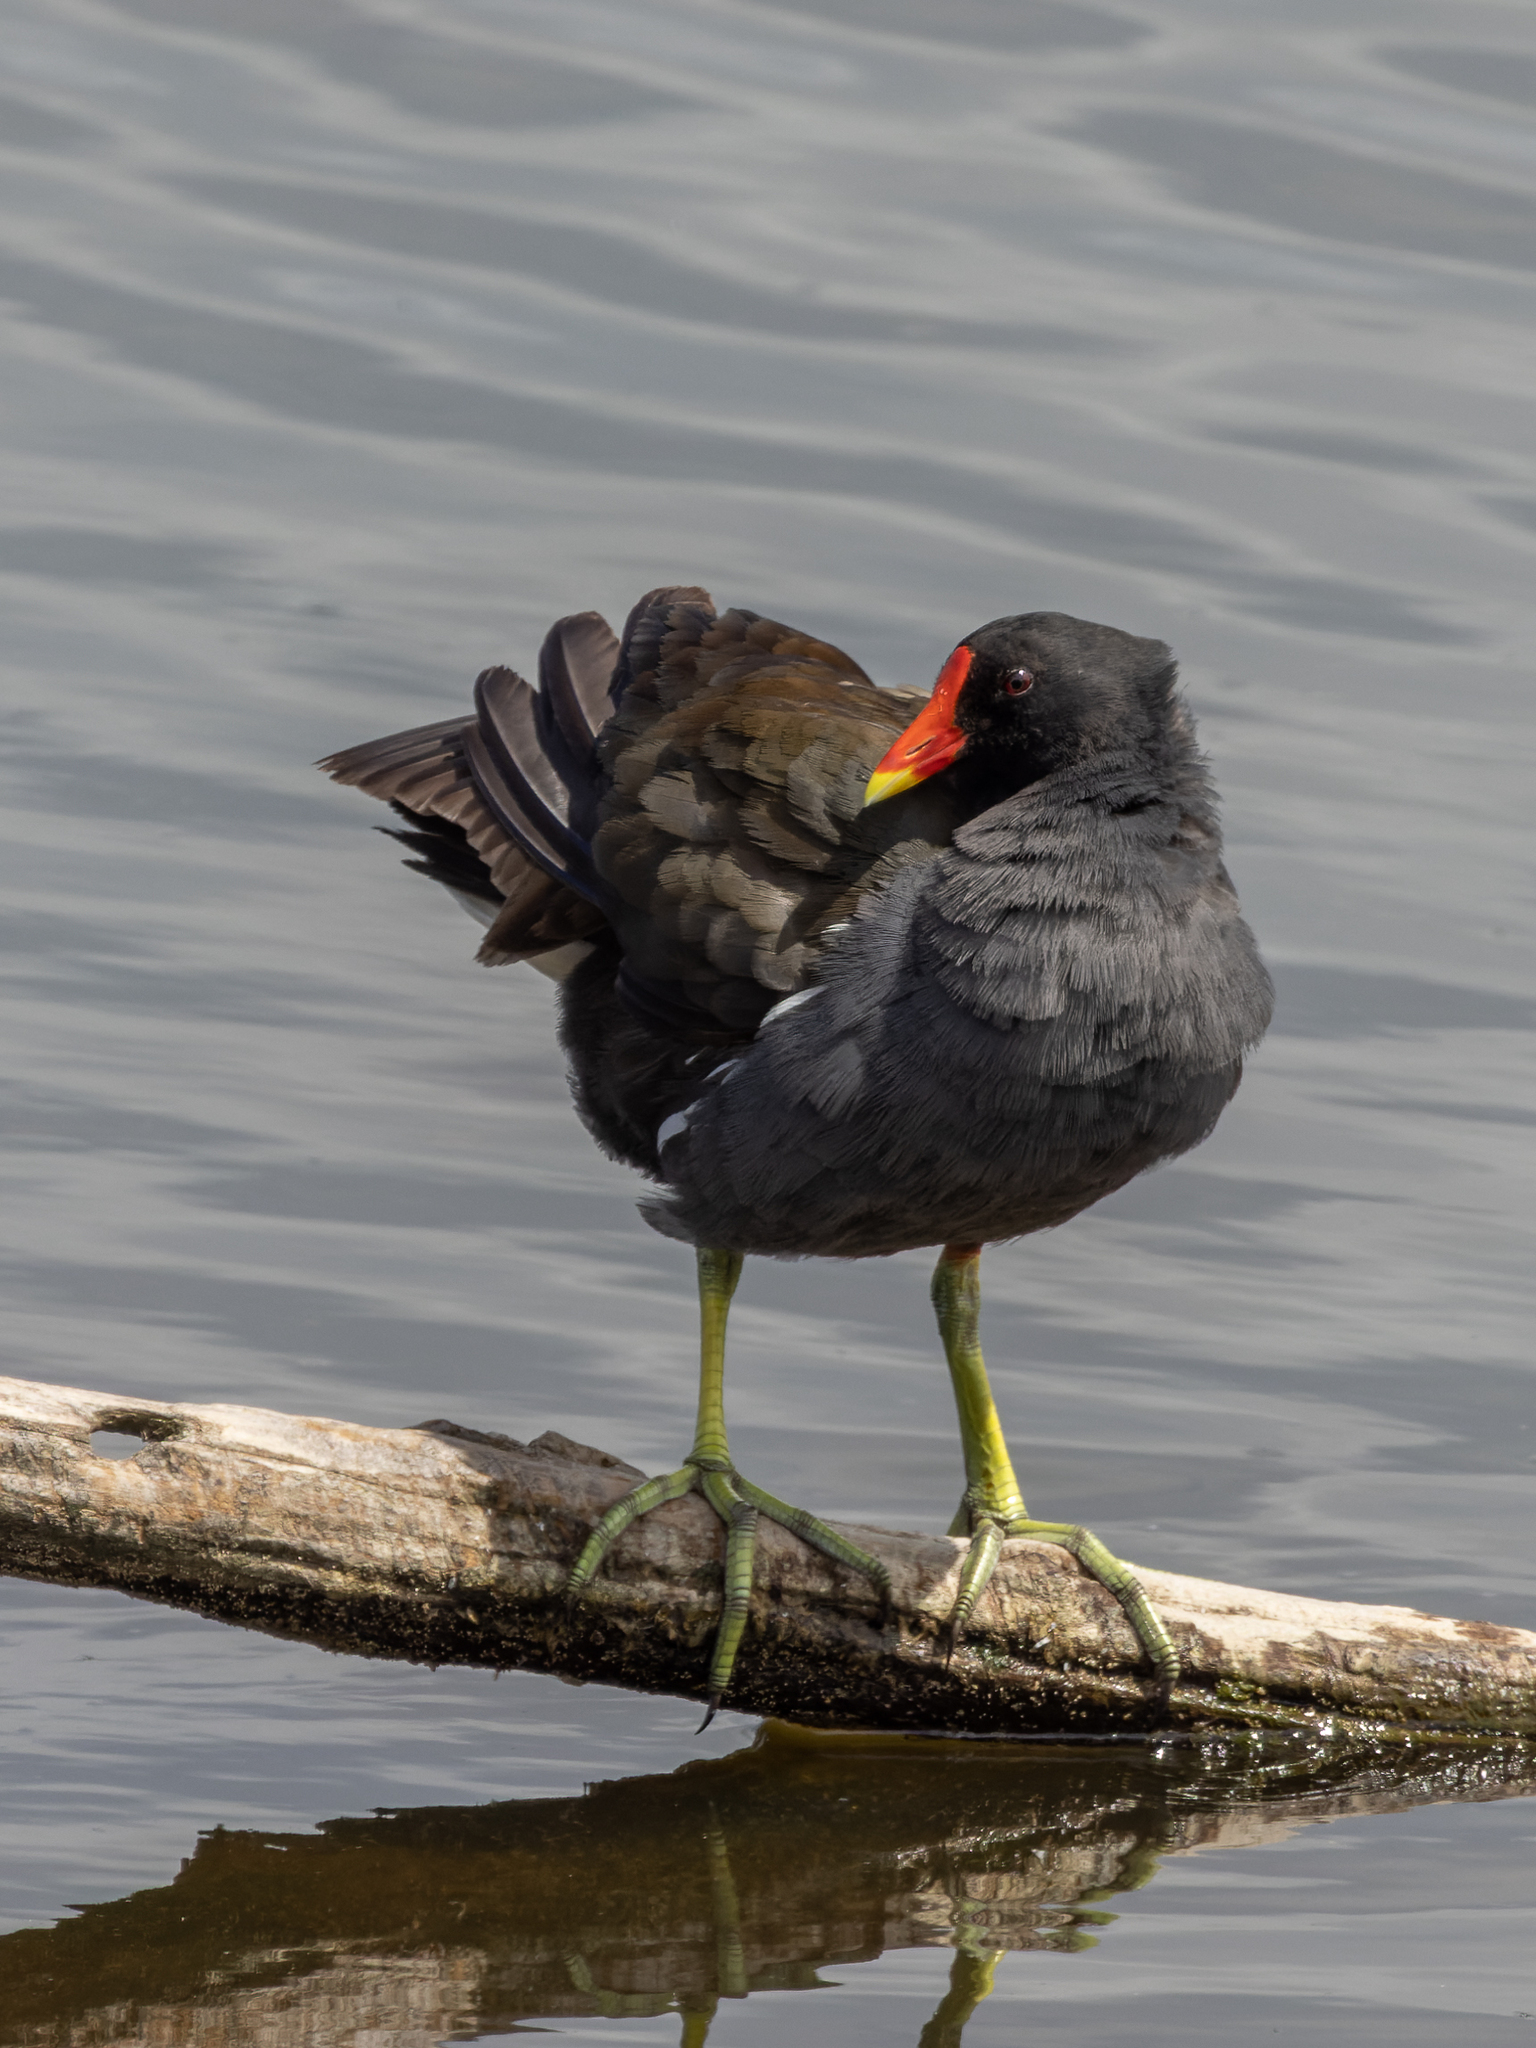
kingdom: Animalia
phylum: Chordata
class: Aves
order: Gruiformes
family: Rallidae
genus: Gallinula
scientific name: Gallinula chloropus
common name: Common moorhen
